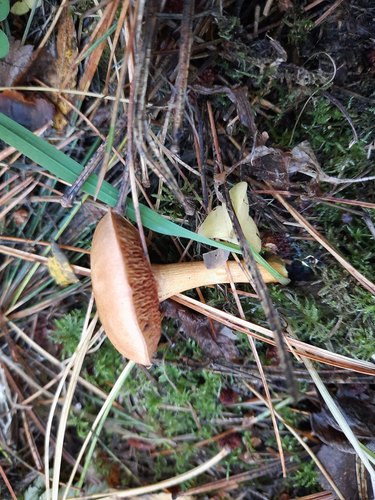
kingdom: Fungi
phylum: Basidiomycota
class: Agaricomycetes
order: Boletales
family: Boletaceae
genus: Chalciporus
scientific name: Chalciporus piperatus
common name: Peppery bolete
